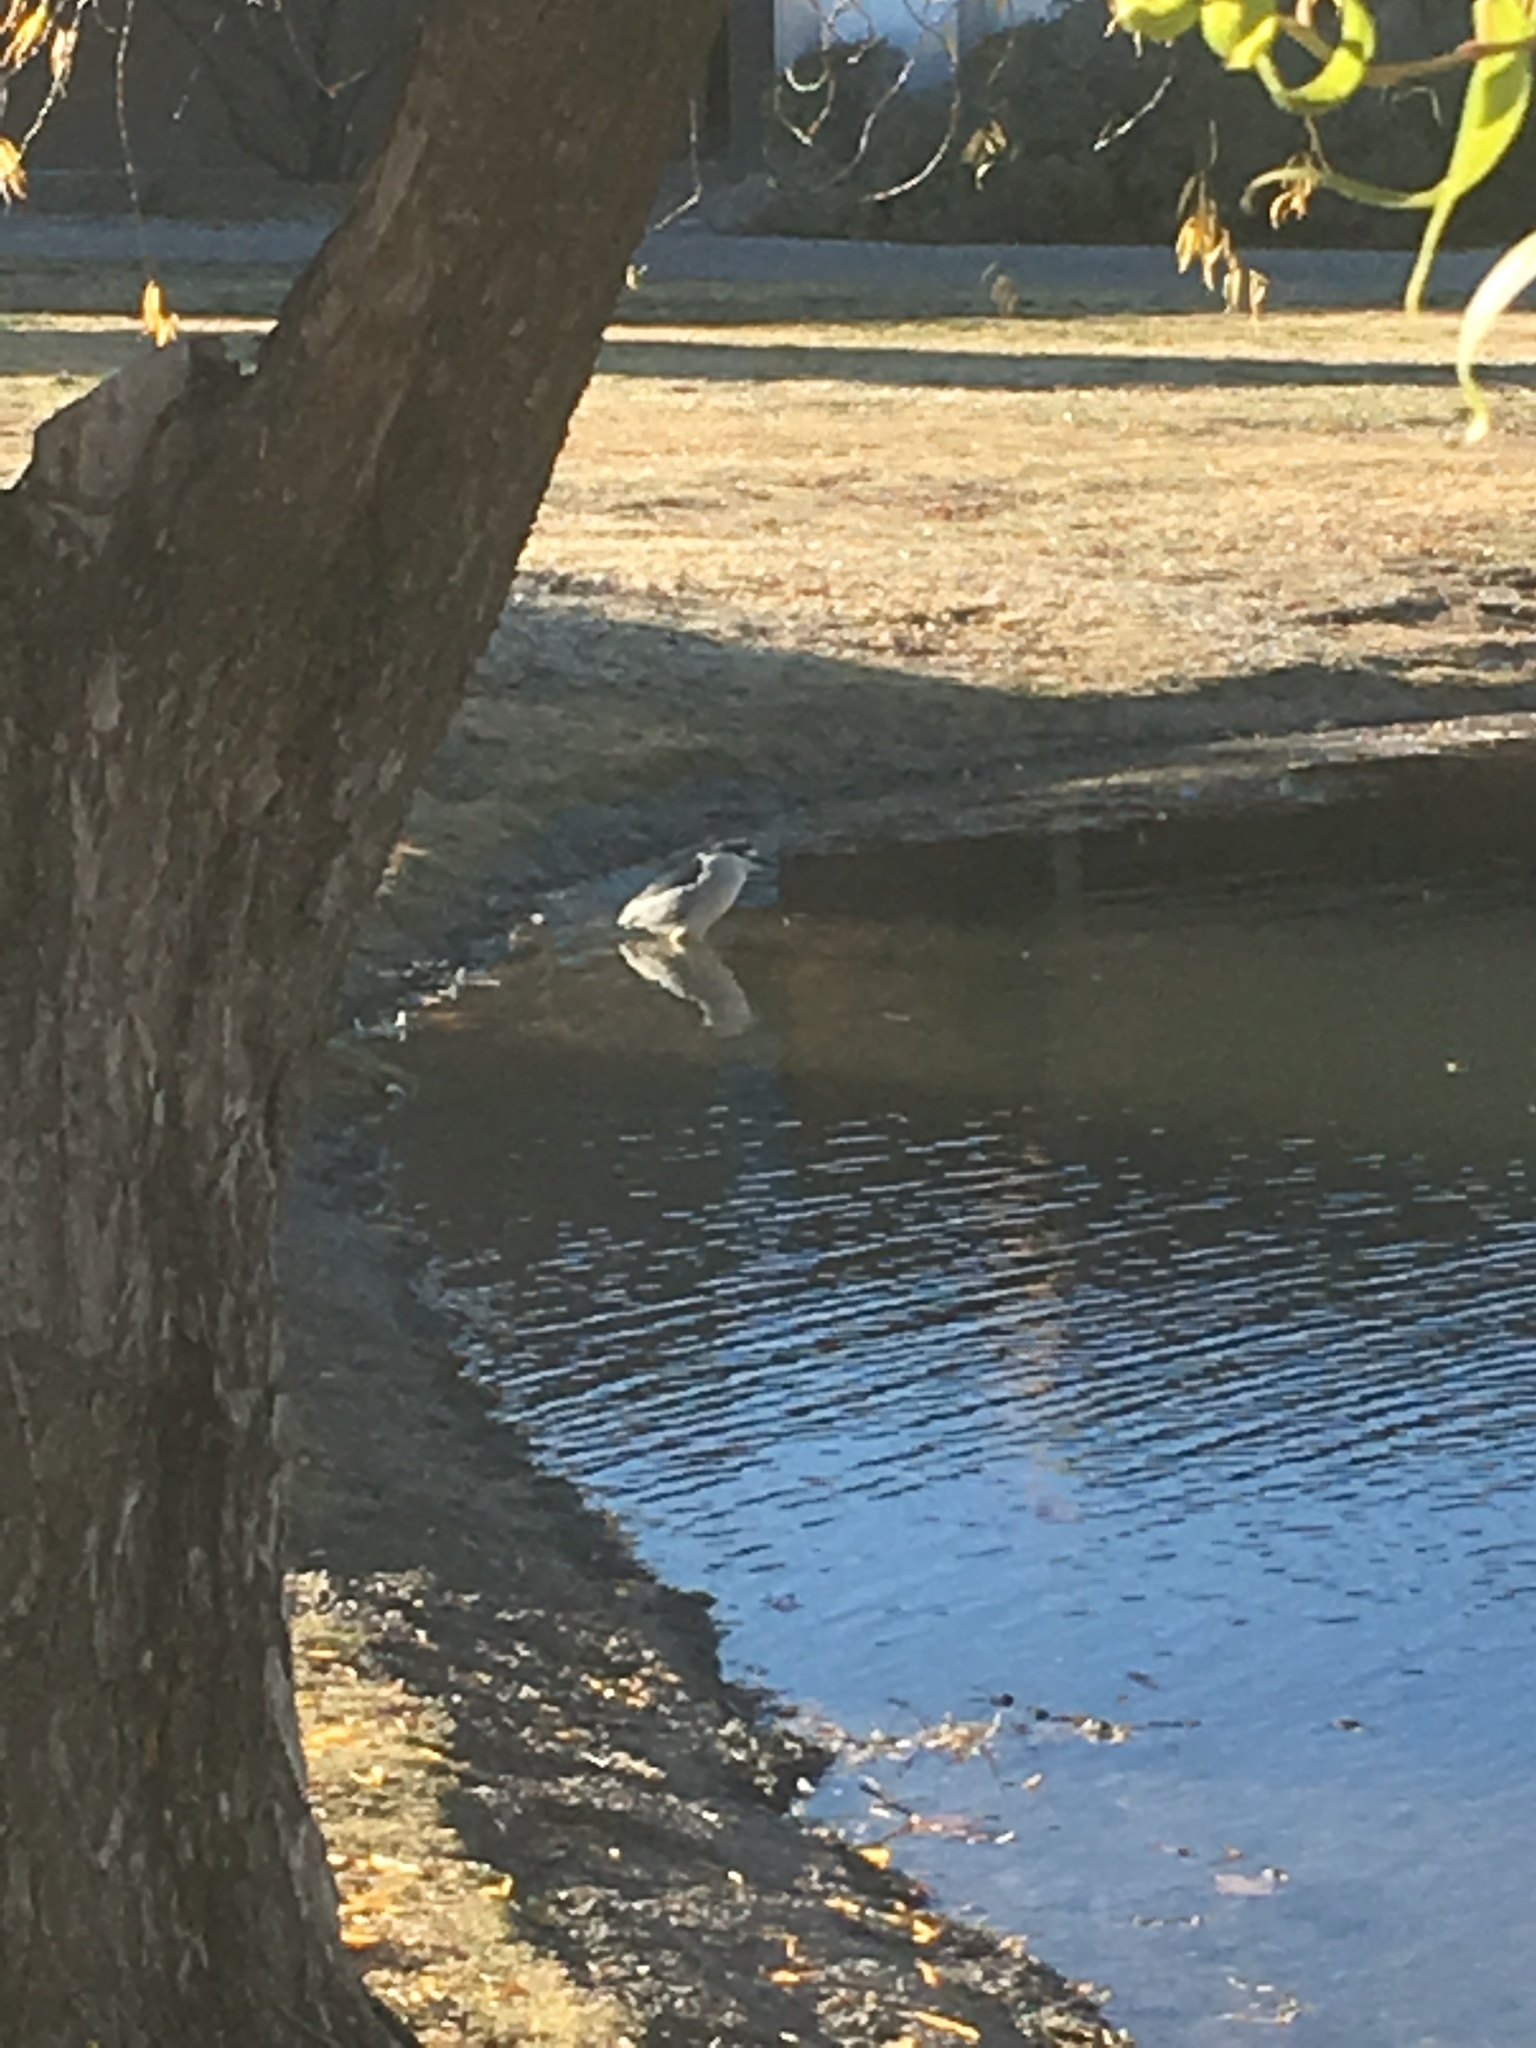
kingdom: Animalia
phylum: Chordata
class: Aves
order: Pelecaniformes
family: Ardeidae
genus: Nycticorax
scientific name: Nycticorax nycticorax
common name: Black-crowned night heron
